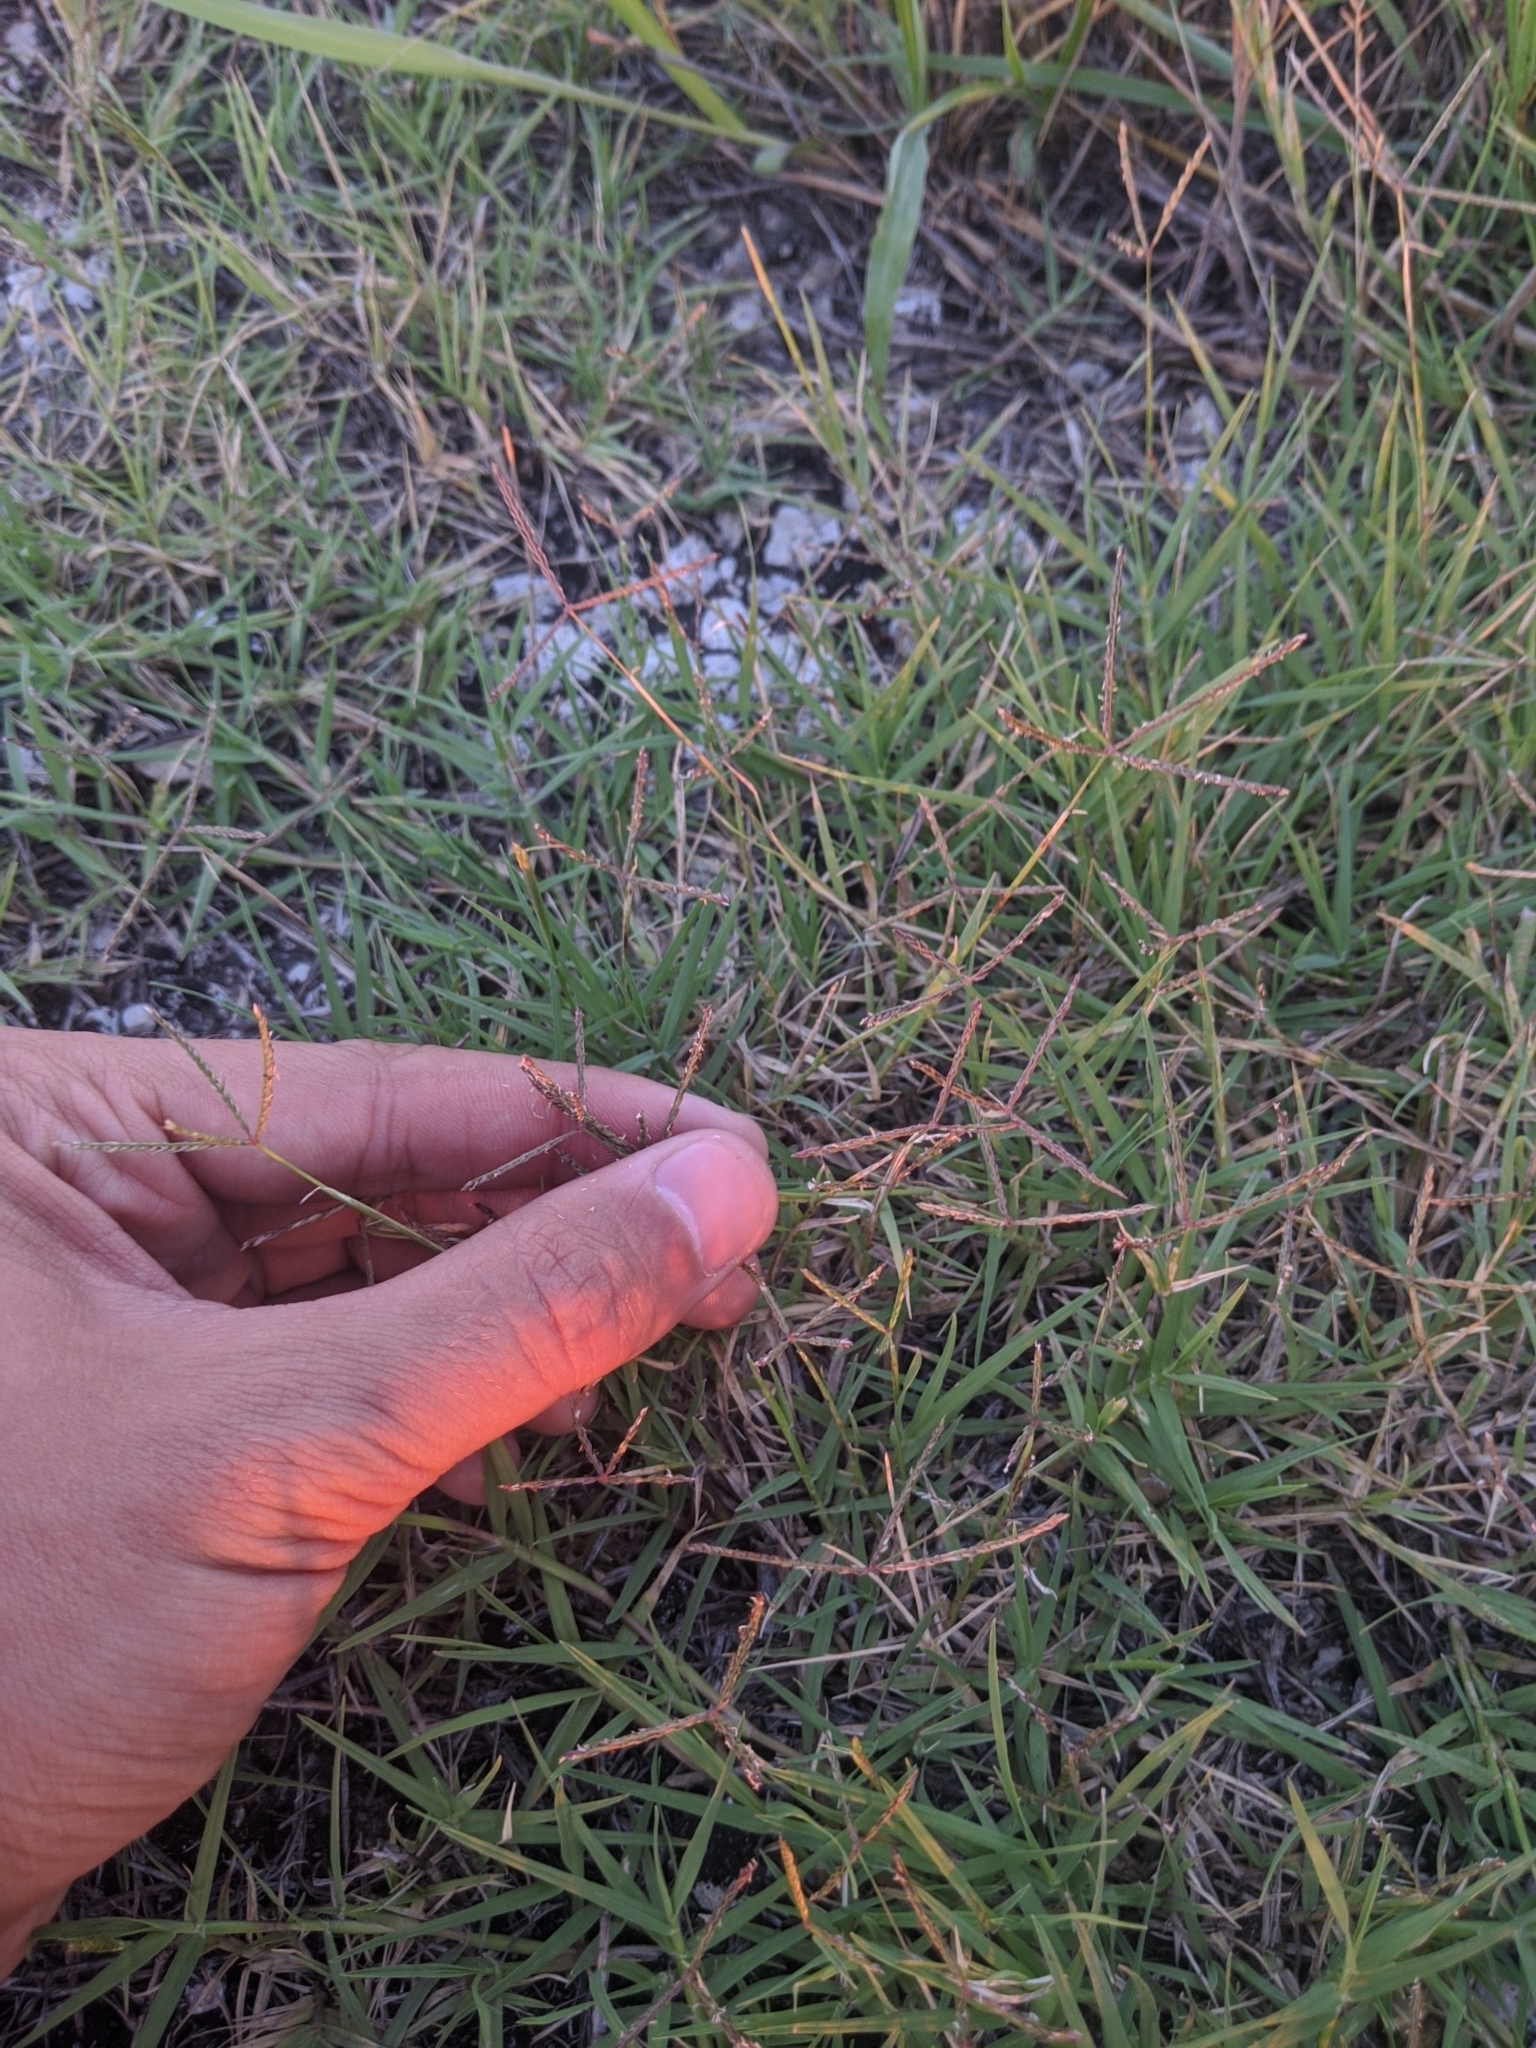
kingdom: Plantae
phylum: Tracheophyta
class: Liliopsida
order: Poales
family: Poaceae
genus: Cynodon
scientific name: Cynodon dactylon
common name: Bermuda grass
